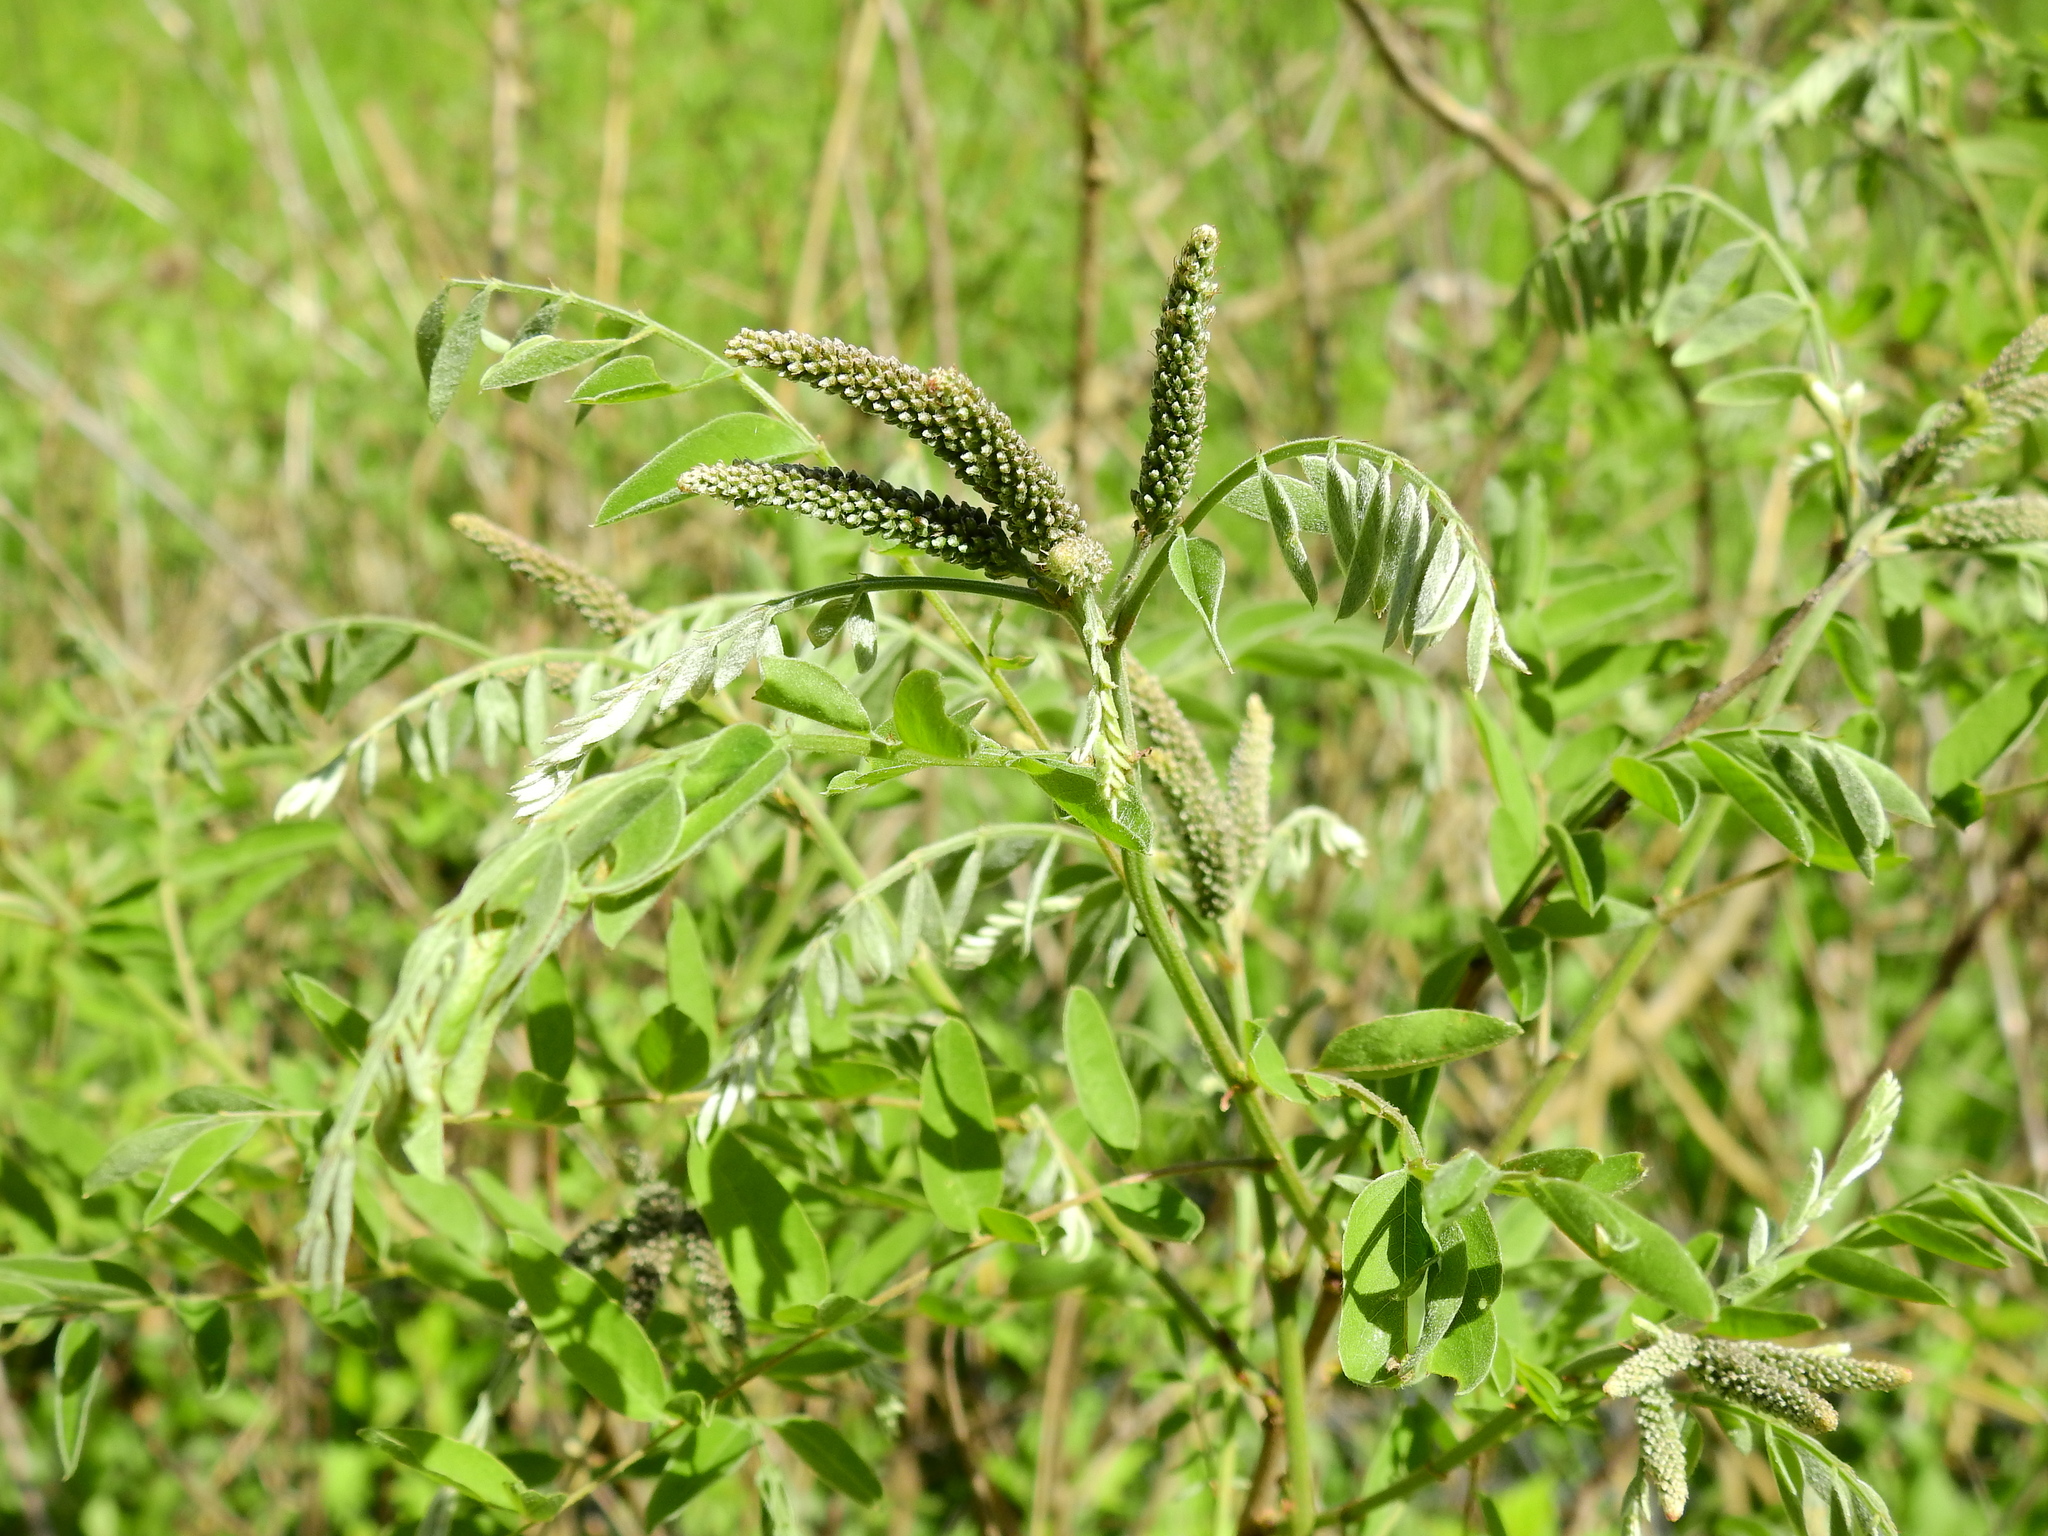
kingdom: Plantae
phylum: Tracheophyta
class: Magnoliopsida
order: Fabales
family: Fabaceae
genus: Amorpha
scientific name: Amorpha fruticosa
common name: False indigo
